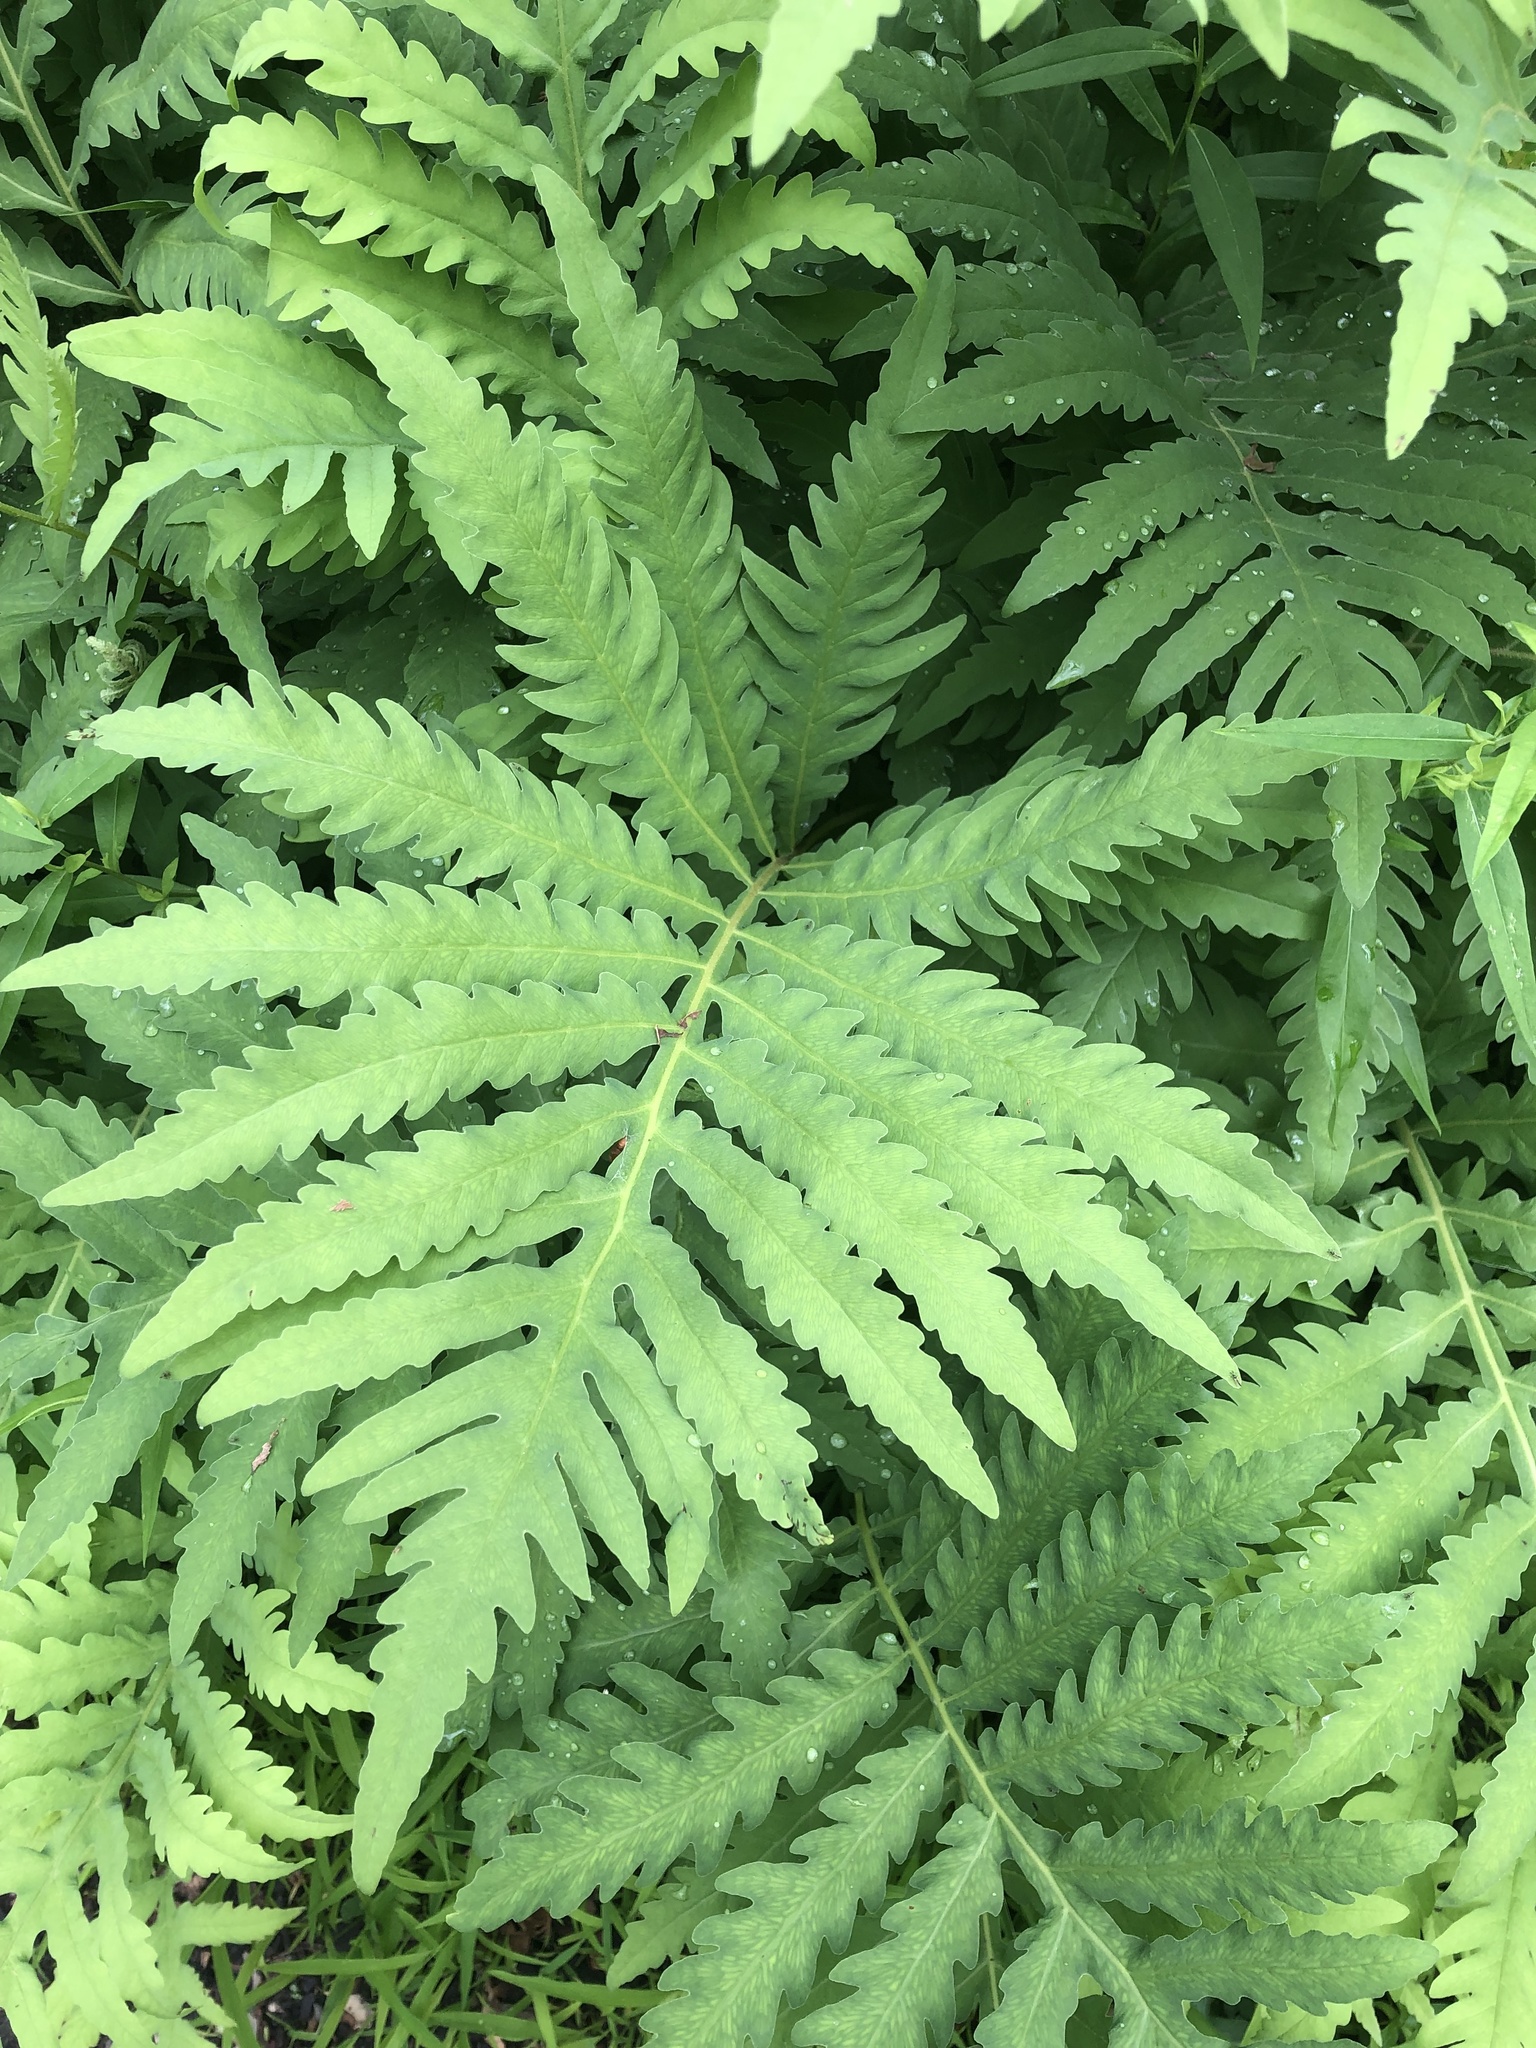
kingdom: Plantae
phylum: Tracheophyta
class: Polypodiopsida
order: Polypodiales
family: Onocleaceae
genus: Onoclea
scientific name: Onoclea sensibilis
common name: Sensitive fern
